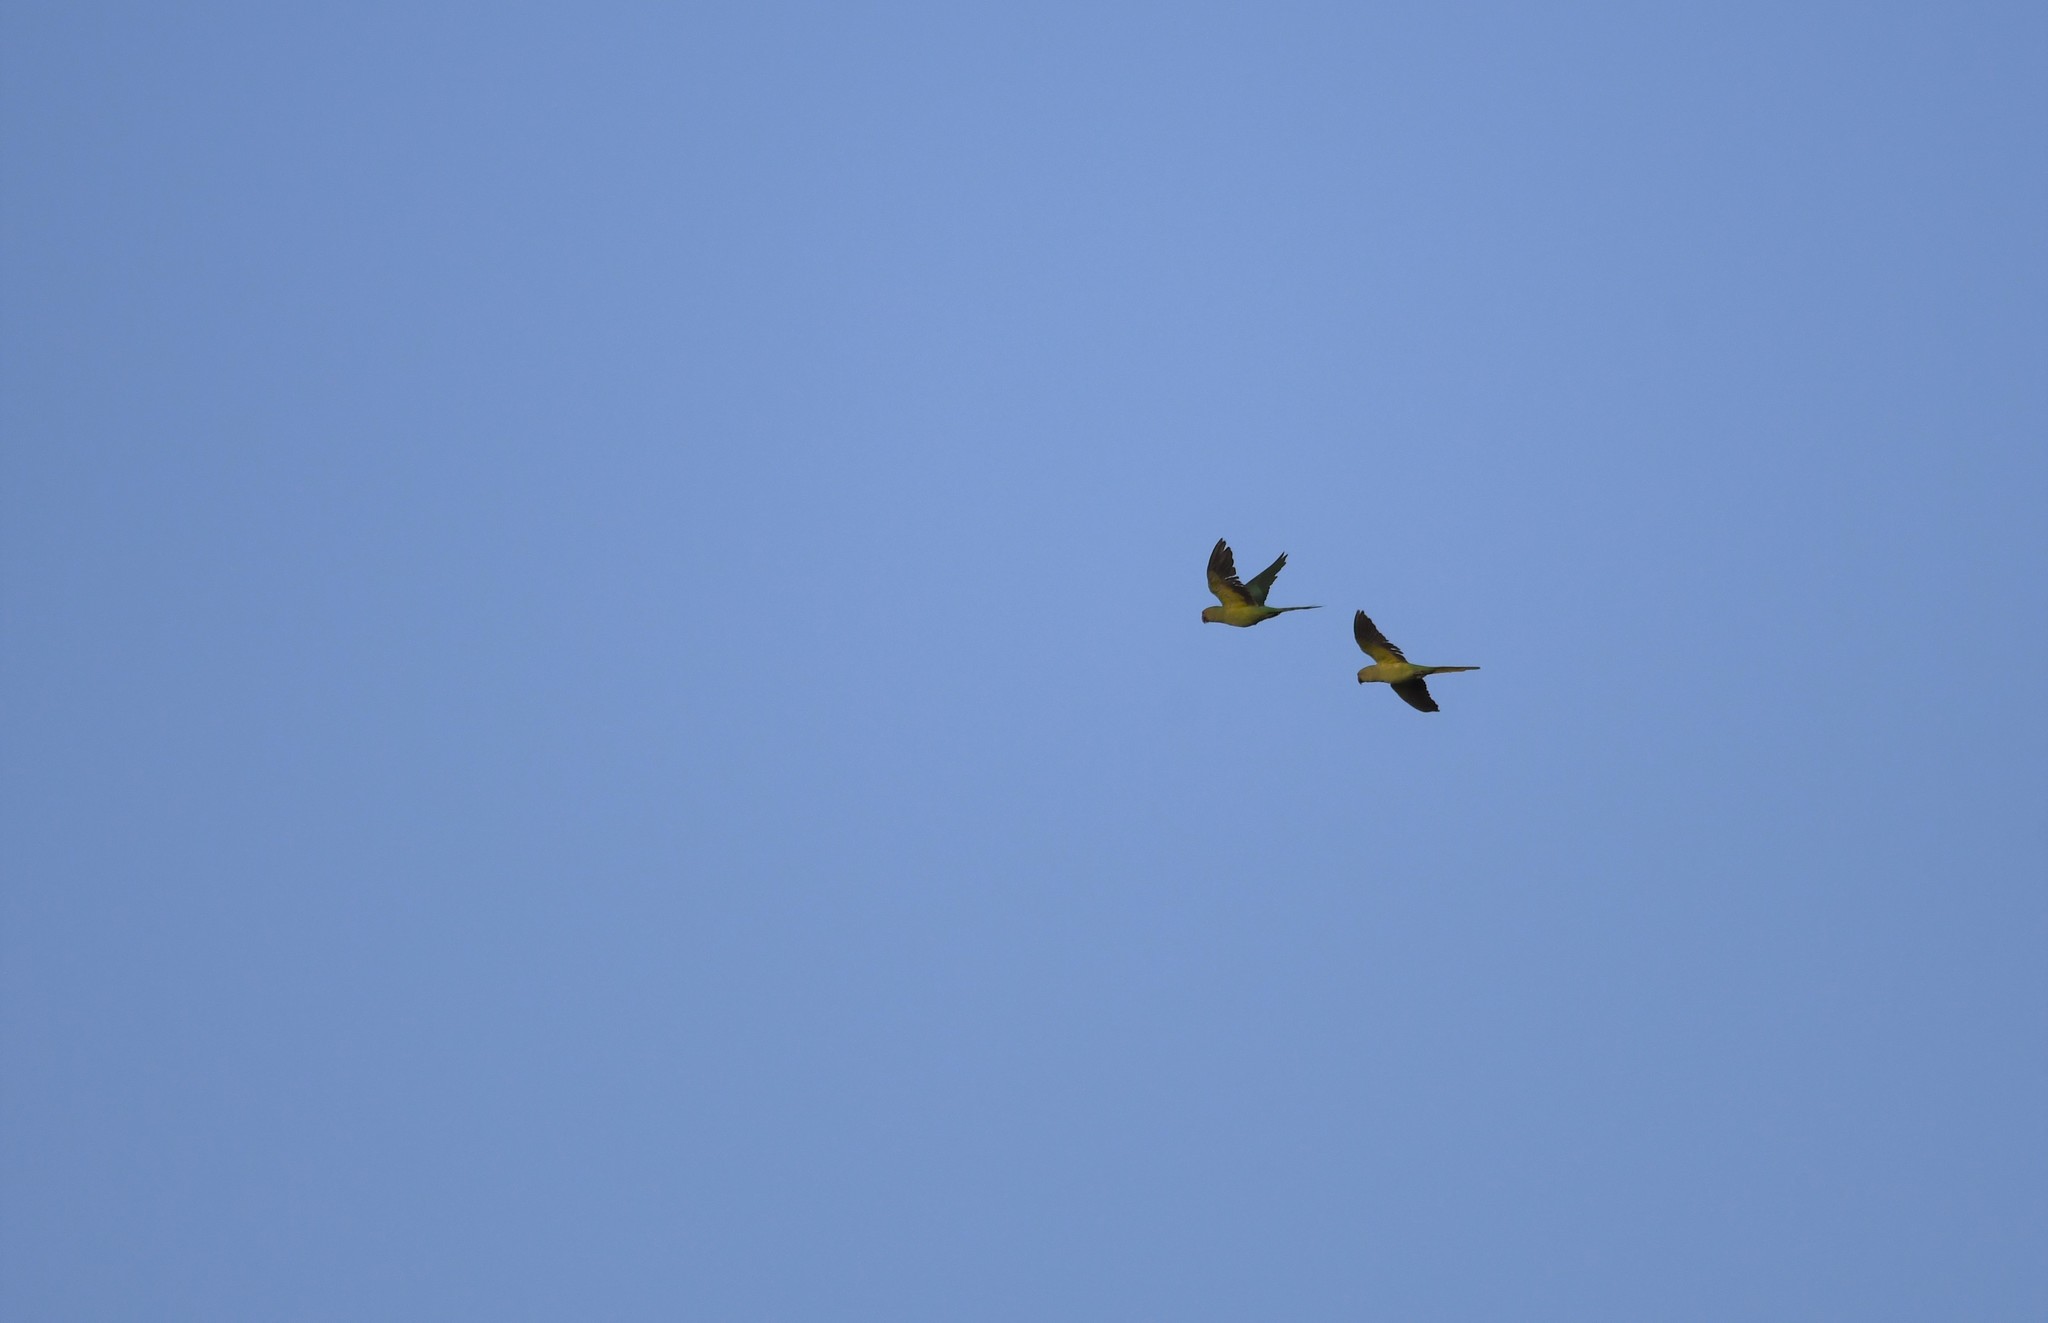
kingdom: Animalia
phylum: Chordata
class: Aves
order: Psittaciformes
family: Psittacidae
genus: Psittacula
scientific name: Psittacula krameri
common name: Rose-ringed parakeet
